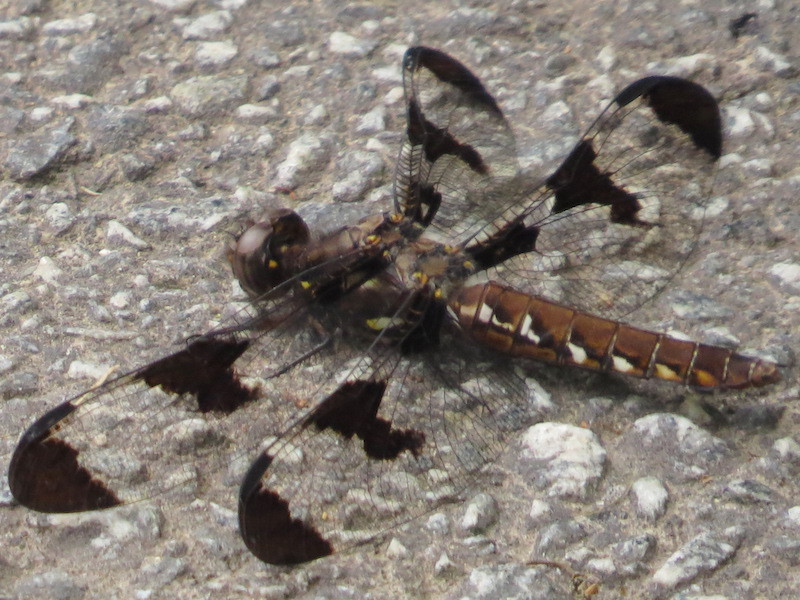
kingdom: Animalia
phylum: Arthropoda
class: Insecta
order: Odonata
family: Libellulidae
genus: Plathemis
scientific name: Plathemis lydia
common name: Common whitetail
